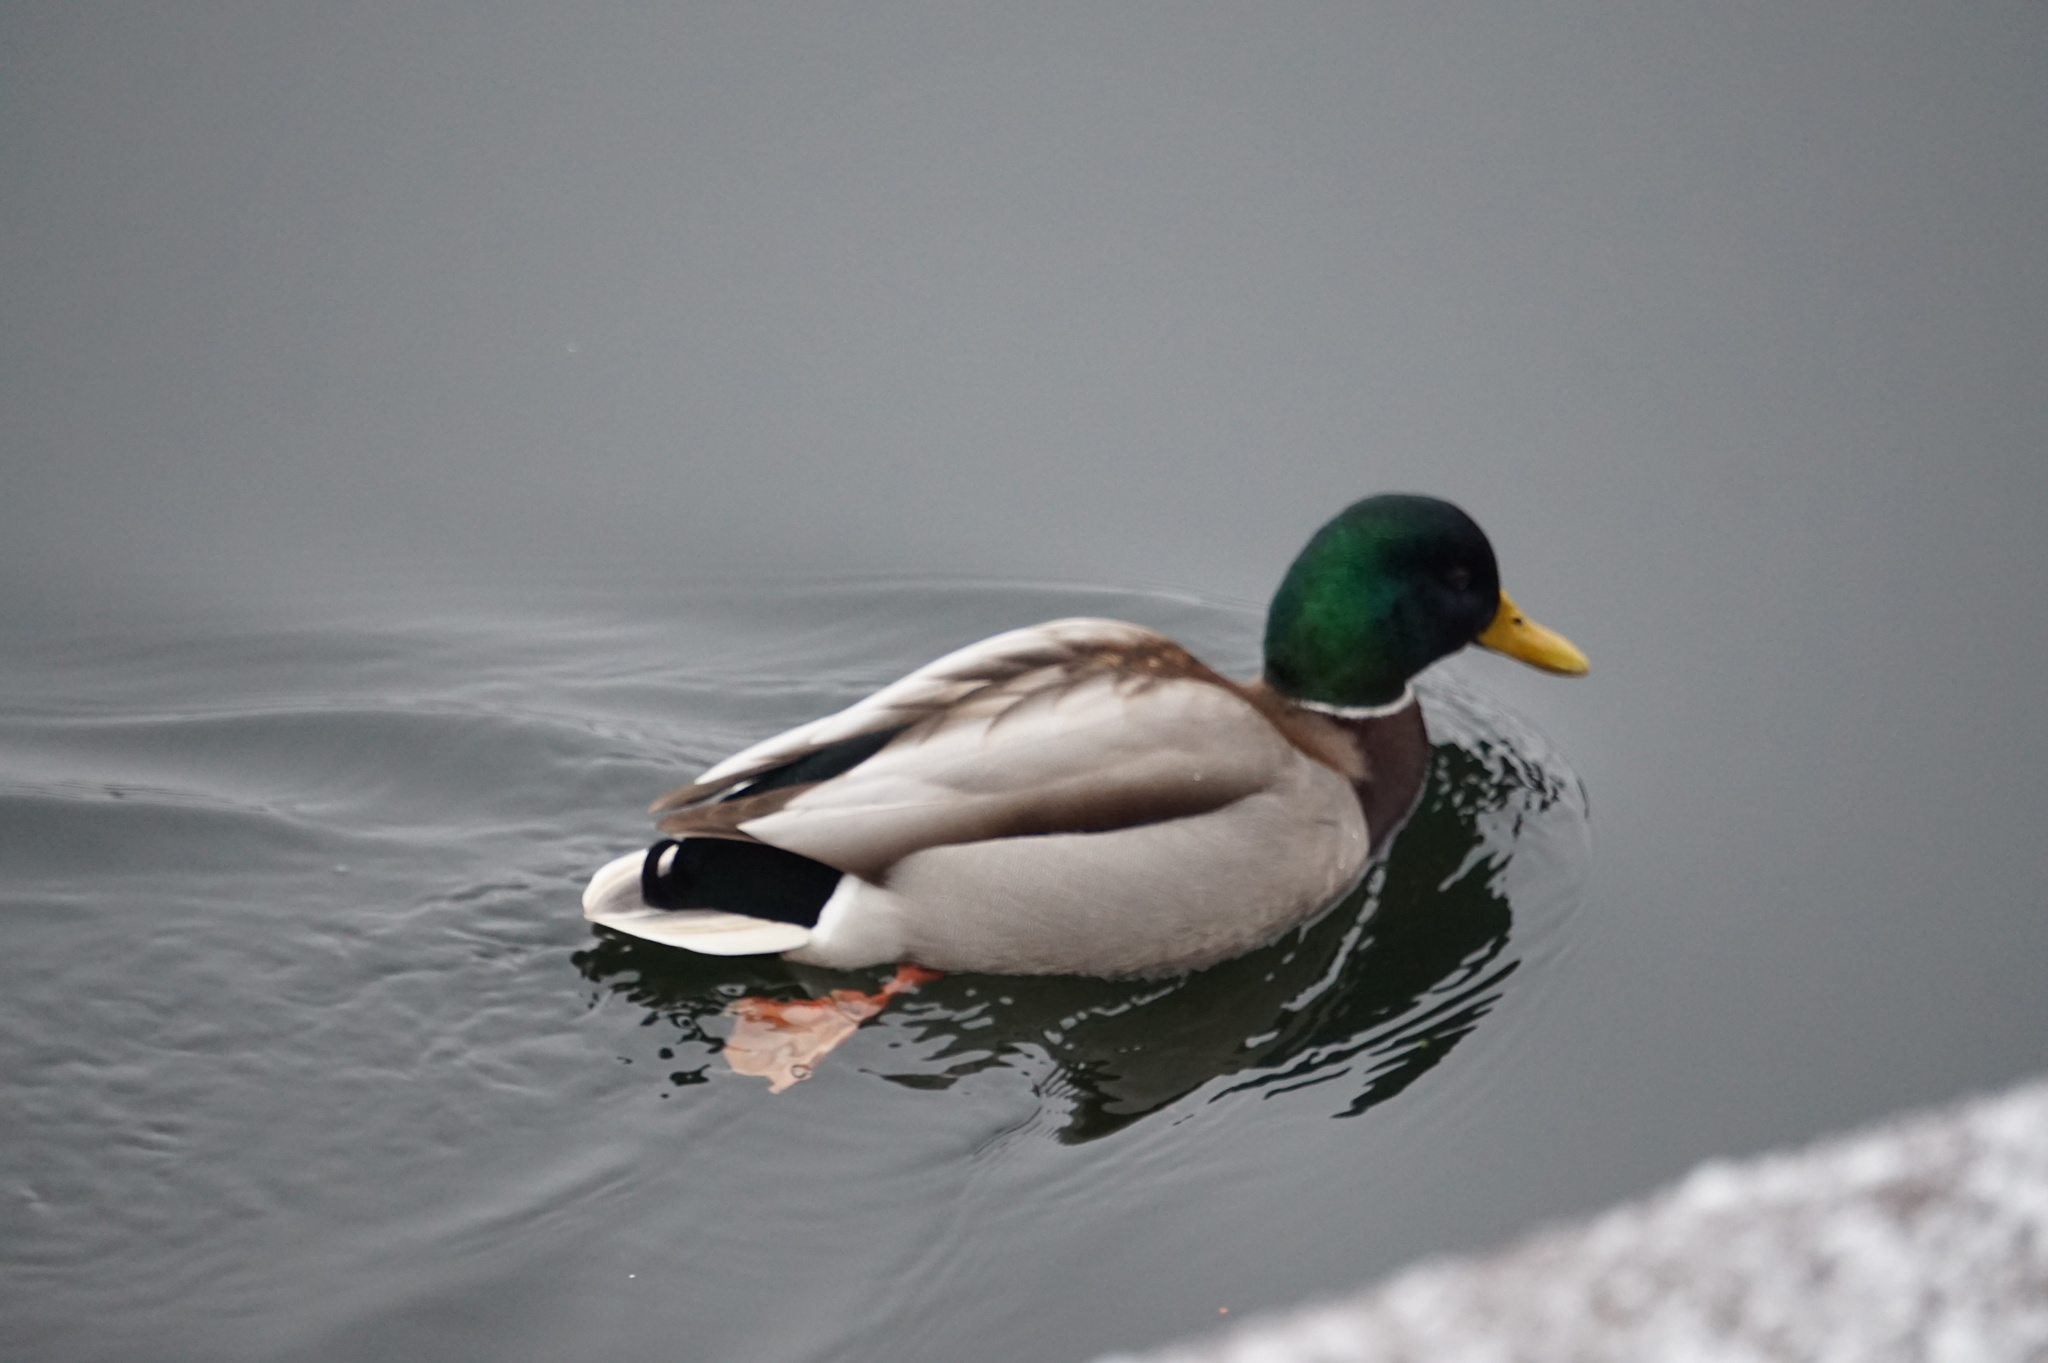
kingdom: Animalia
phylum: Chordata
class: Aves
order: Anseriformes
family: Anatidae
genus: Anas
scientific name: Anas platyrhynchos
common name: Mallard
